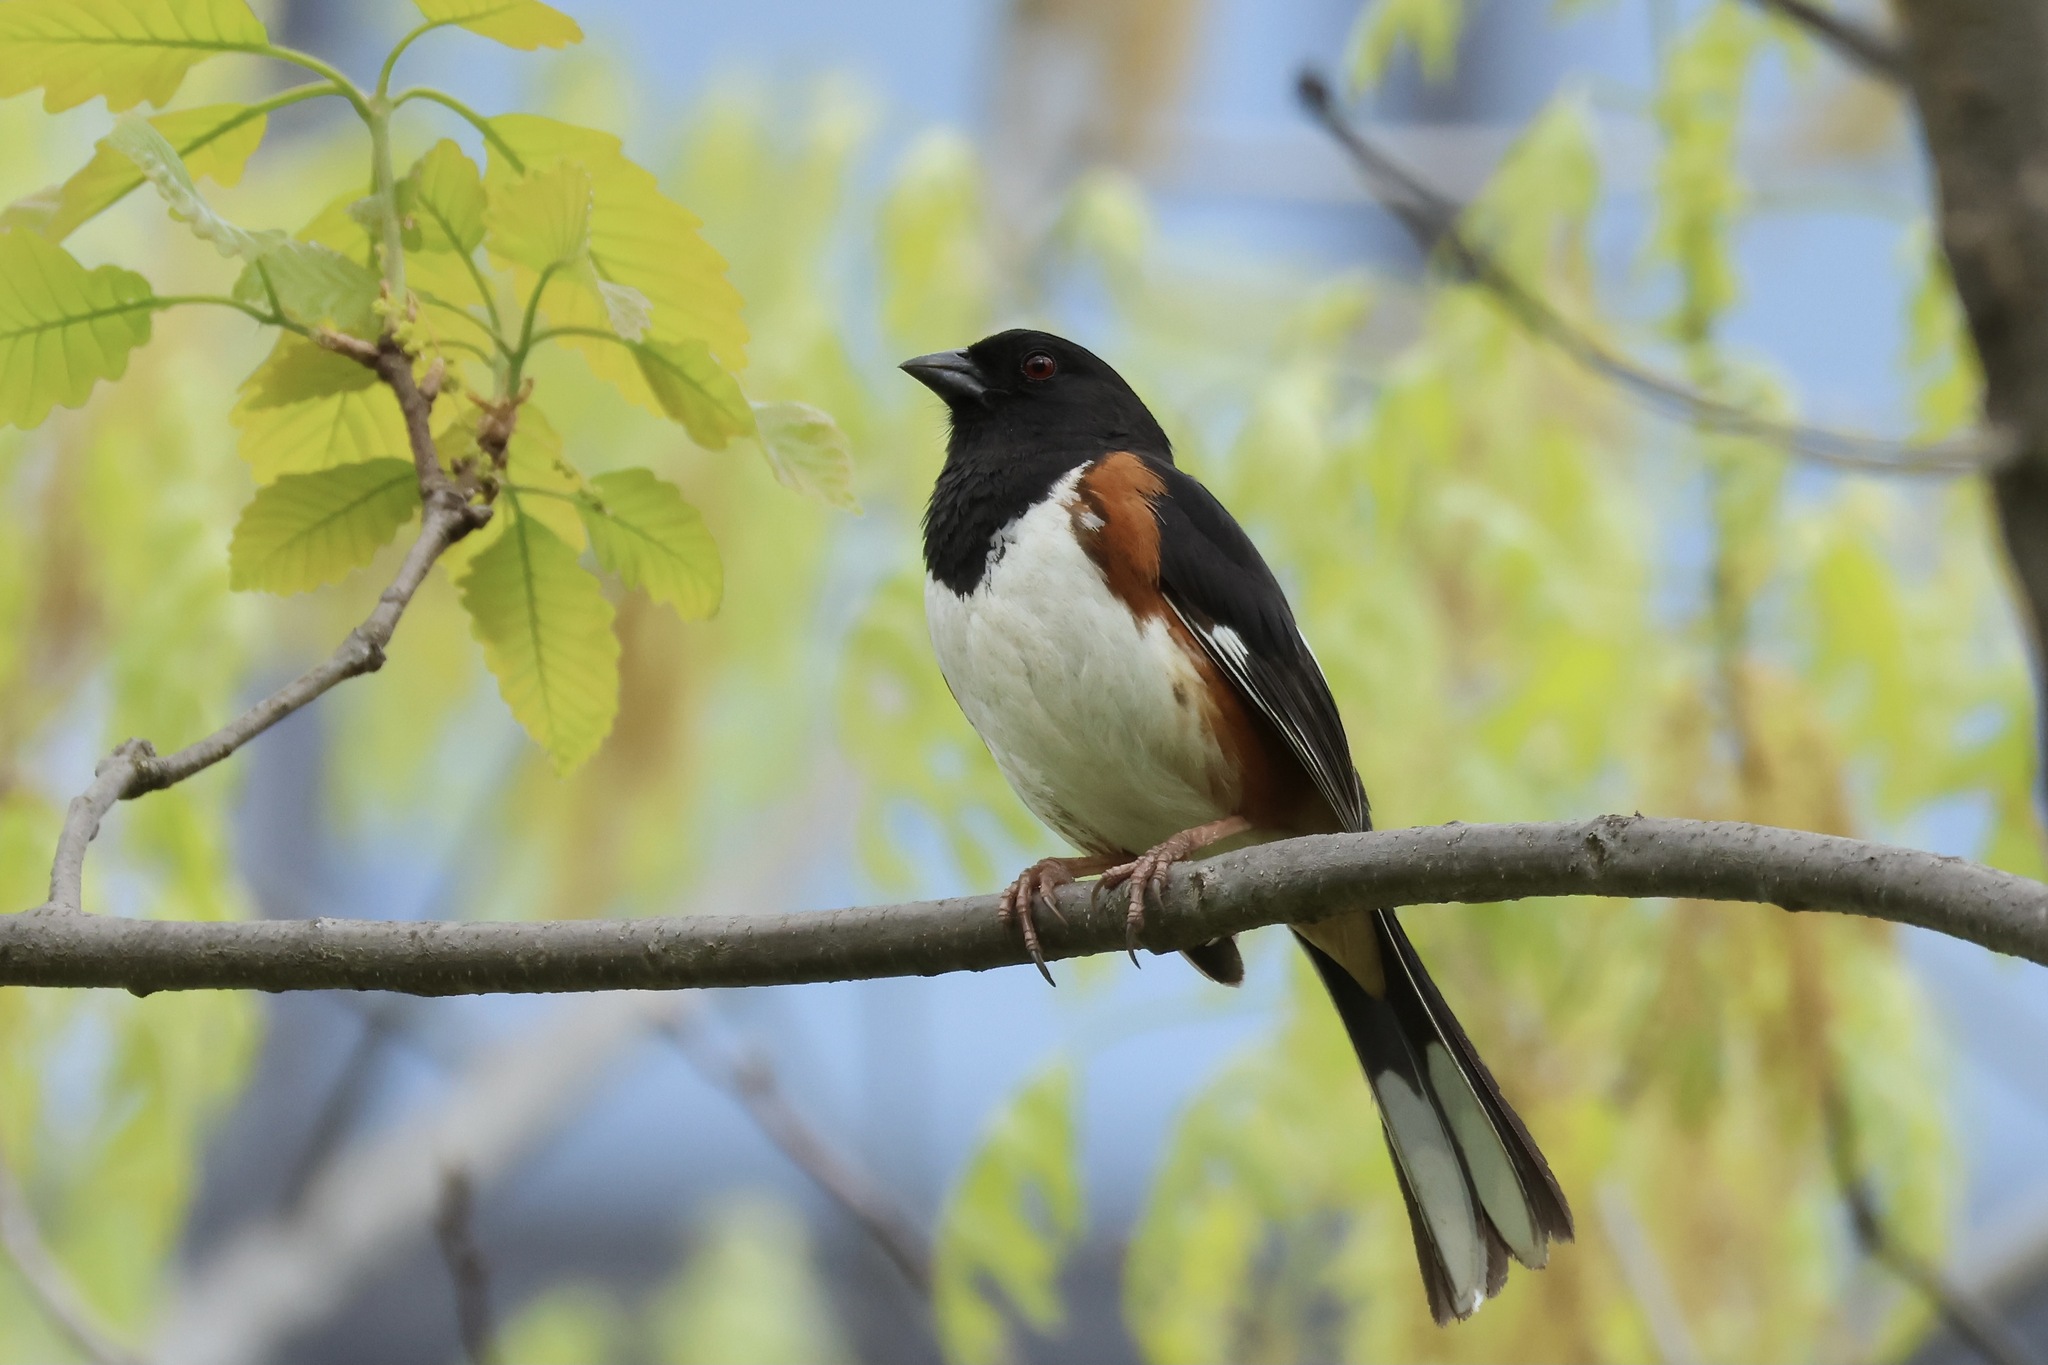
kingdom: Animalia
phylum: Chordata
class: Aves
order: Passeriformes
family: Passerellidae
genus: Pipilo
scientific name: Pipilo erythrophthalmus
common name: Eastern towhee
